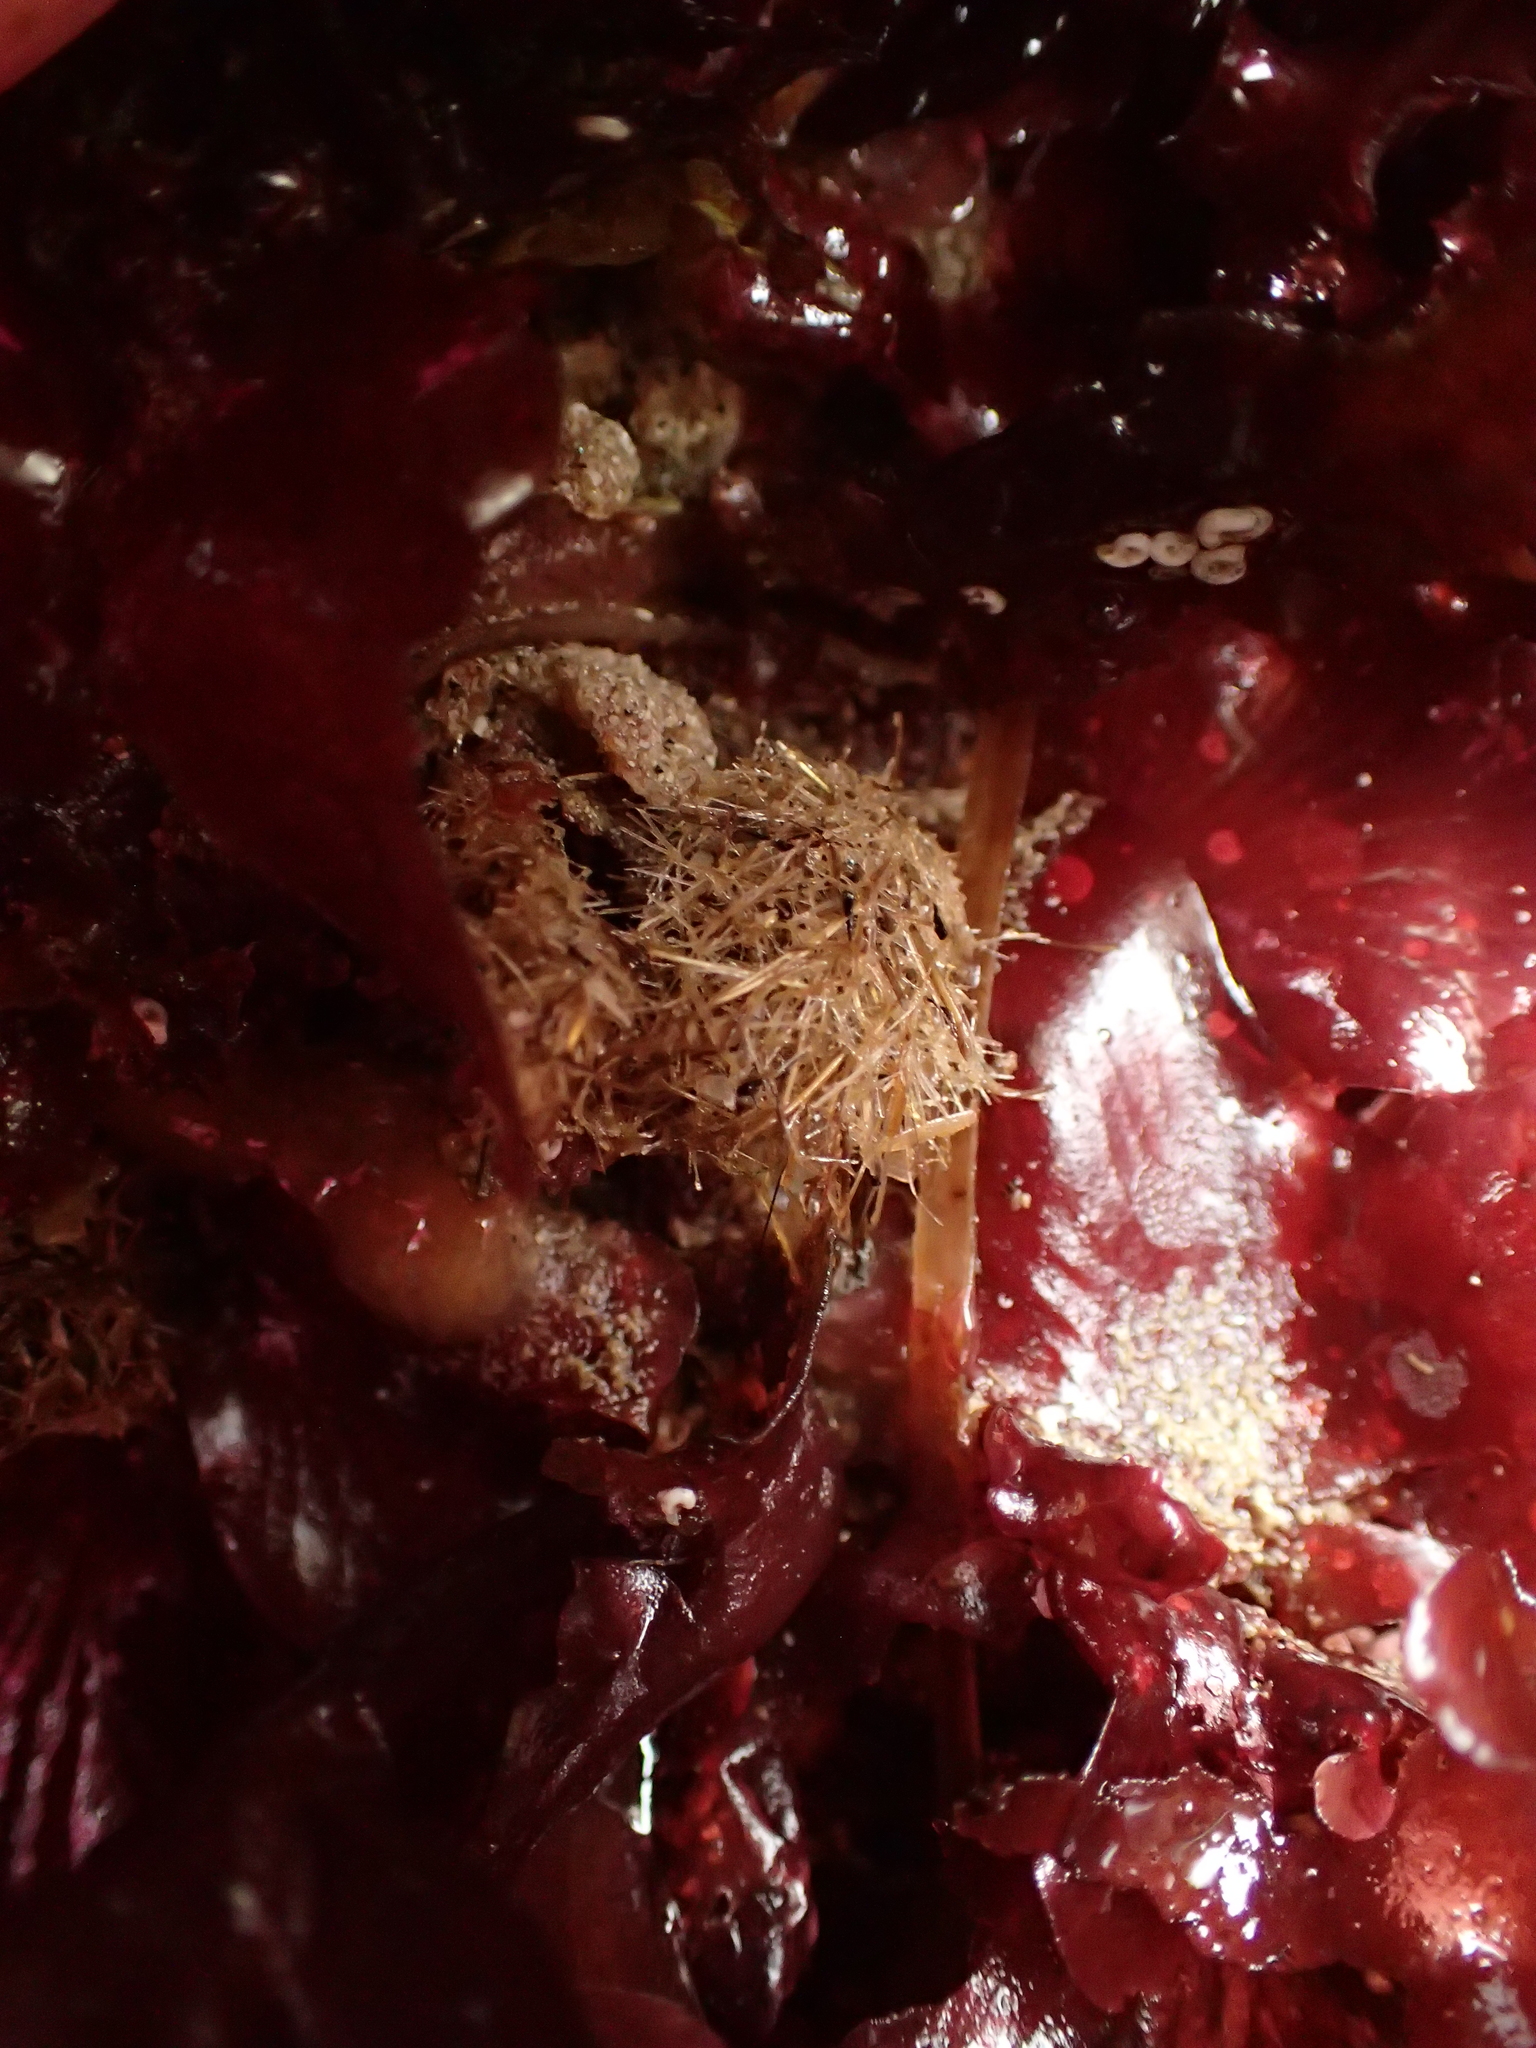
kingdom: Animalia
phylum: Annelida
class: Polychaeta
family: Terebellidae
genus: Pista
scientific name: Pista elongata
